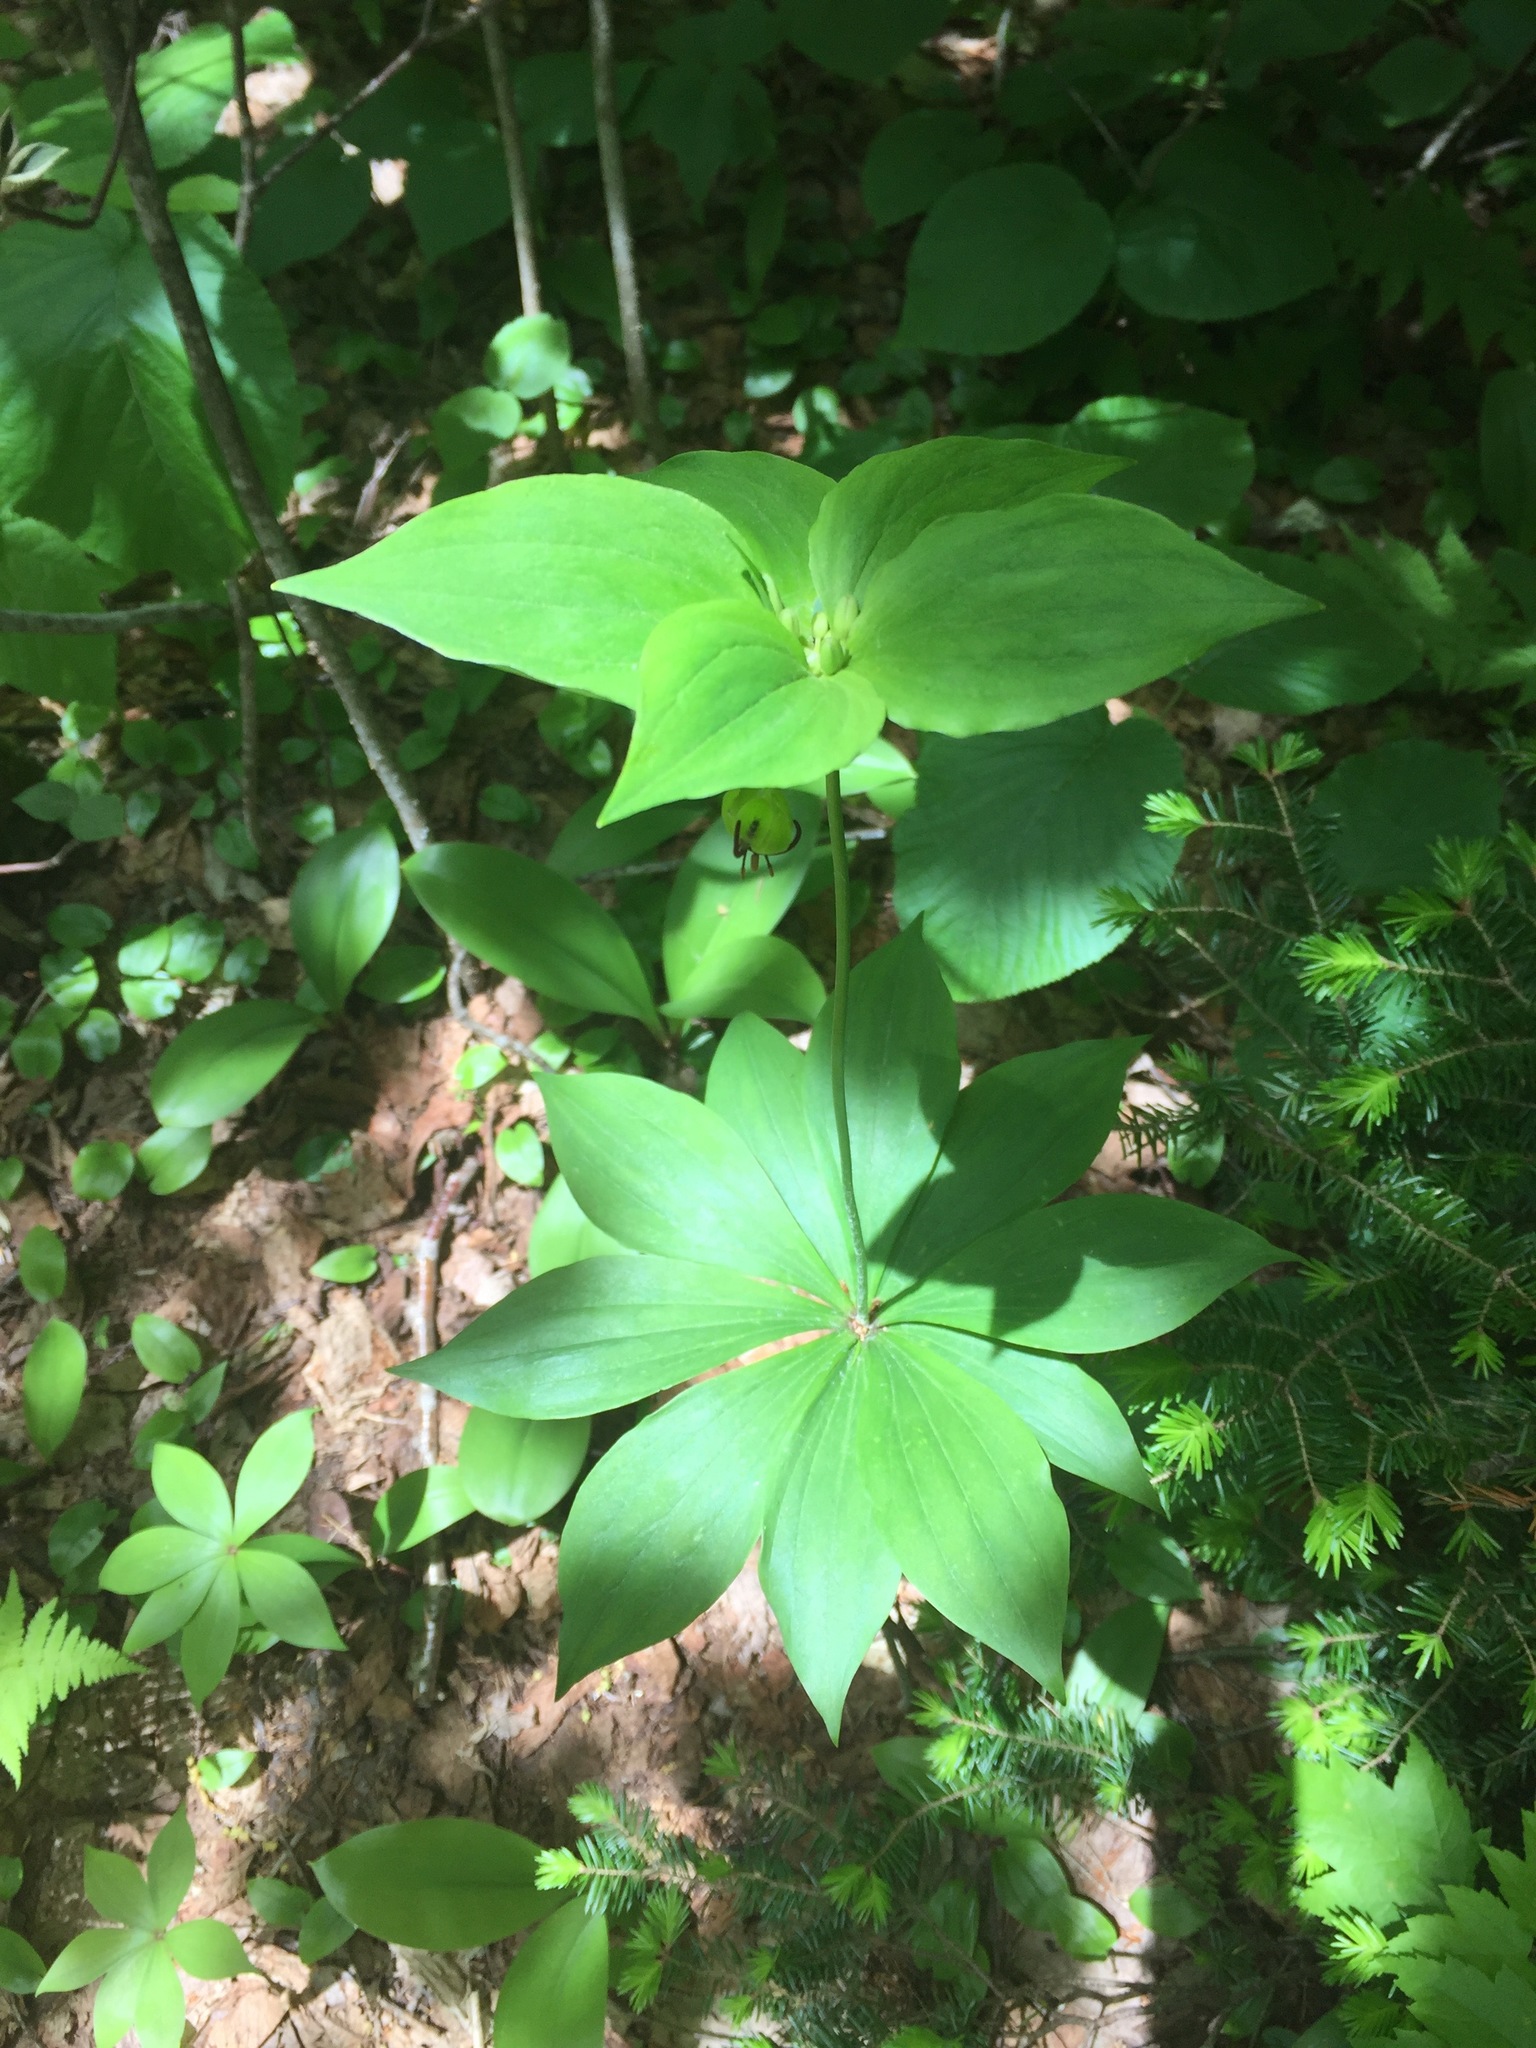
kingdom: Plantae
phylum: Tracheophyta
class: Liliopsida
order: Liliales
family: Liliaceae
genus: Medeola
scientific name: Medeola virginiana
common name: Indian cucumber-root
